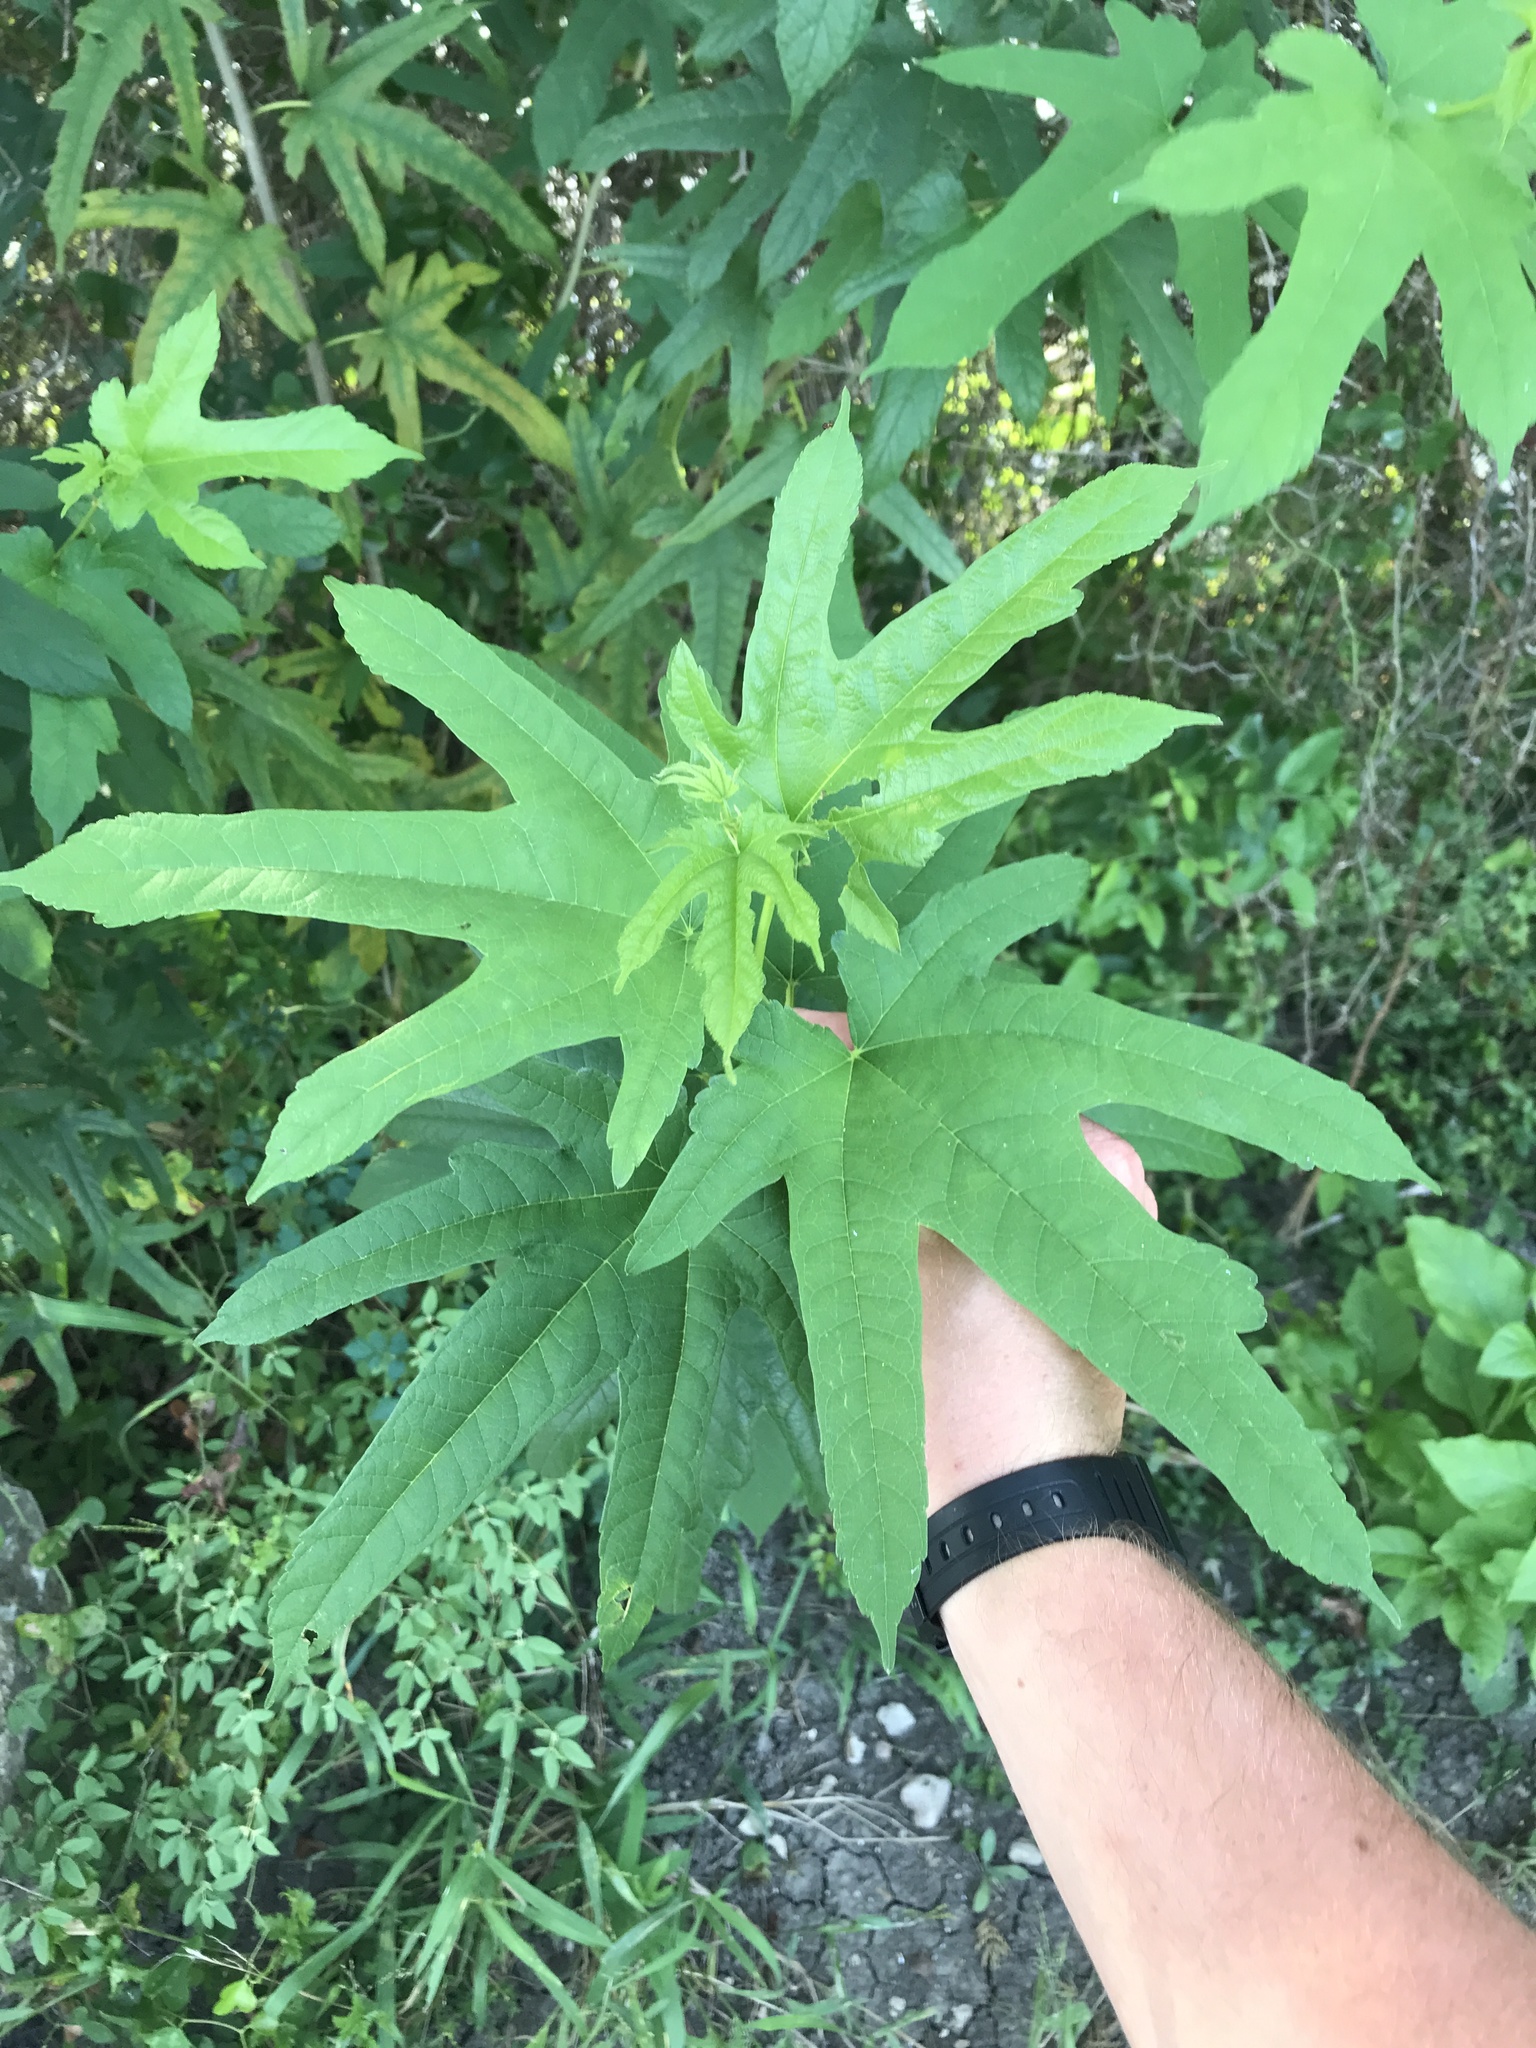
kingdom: Plantae
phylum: Tracheophyta
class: Magnoliopsida
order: Rosales
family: Moraceae
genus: Morus
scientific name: Morus indica
